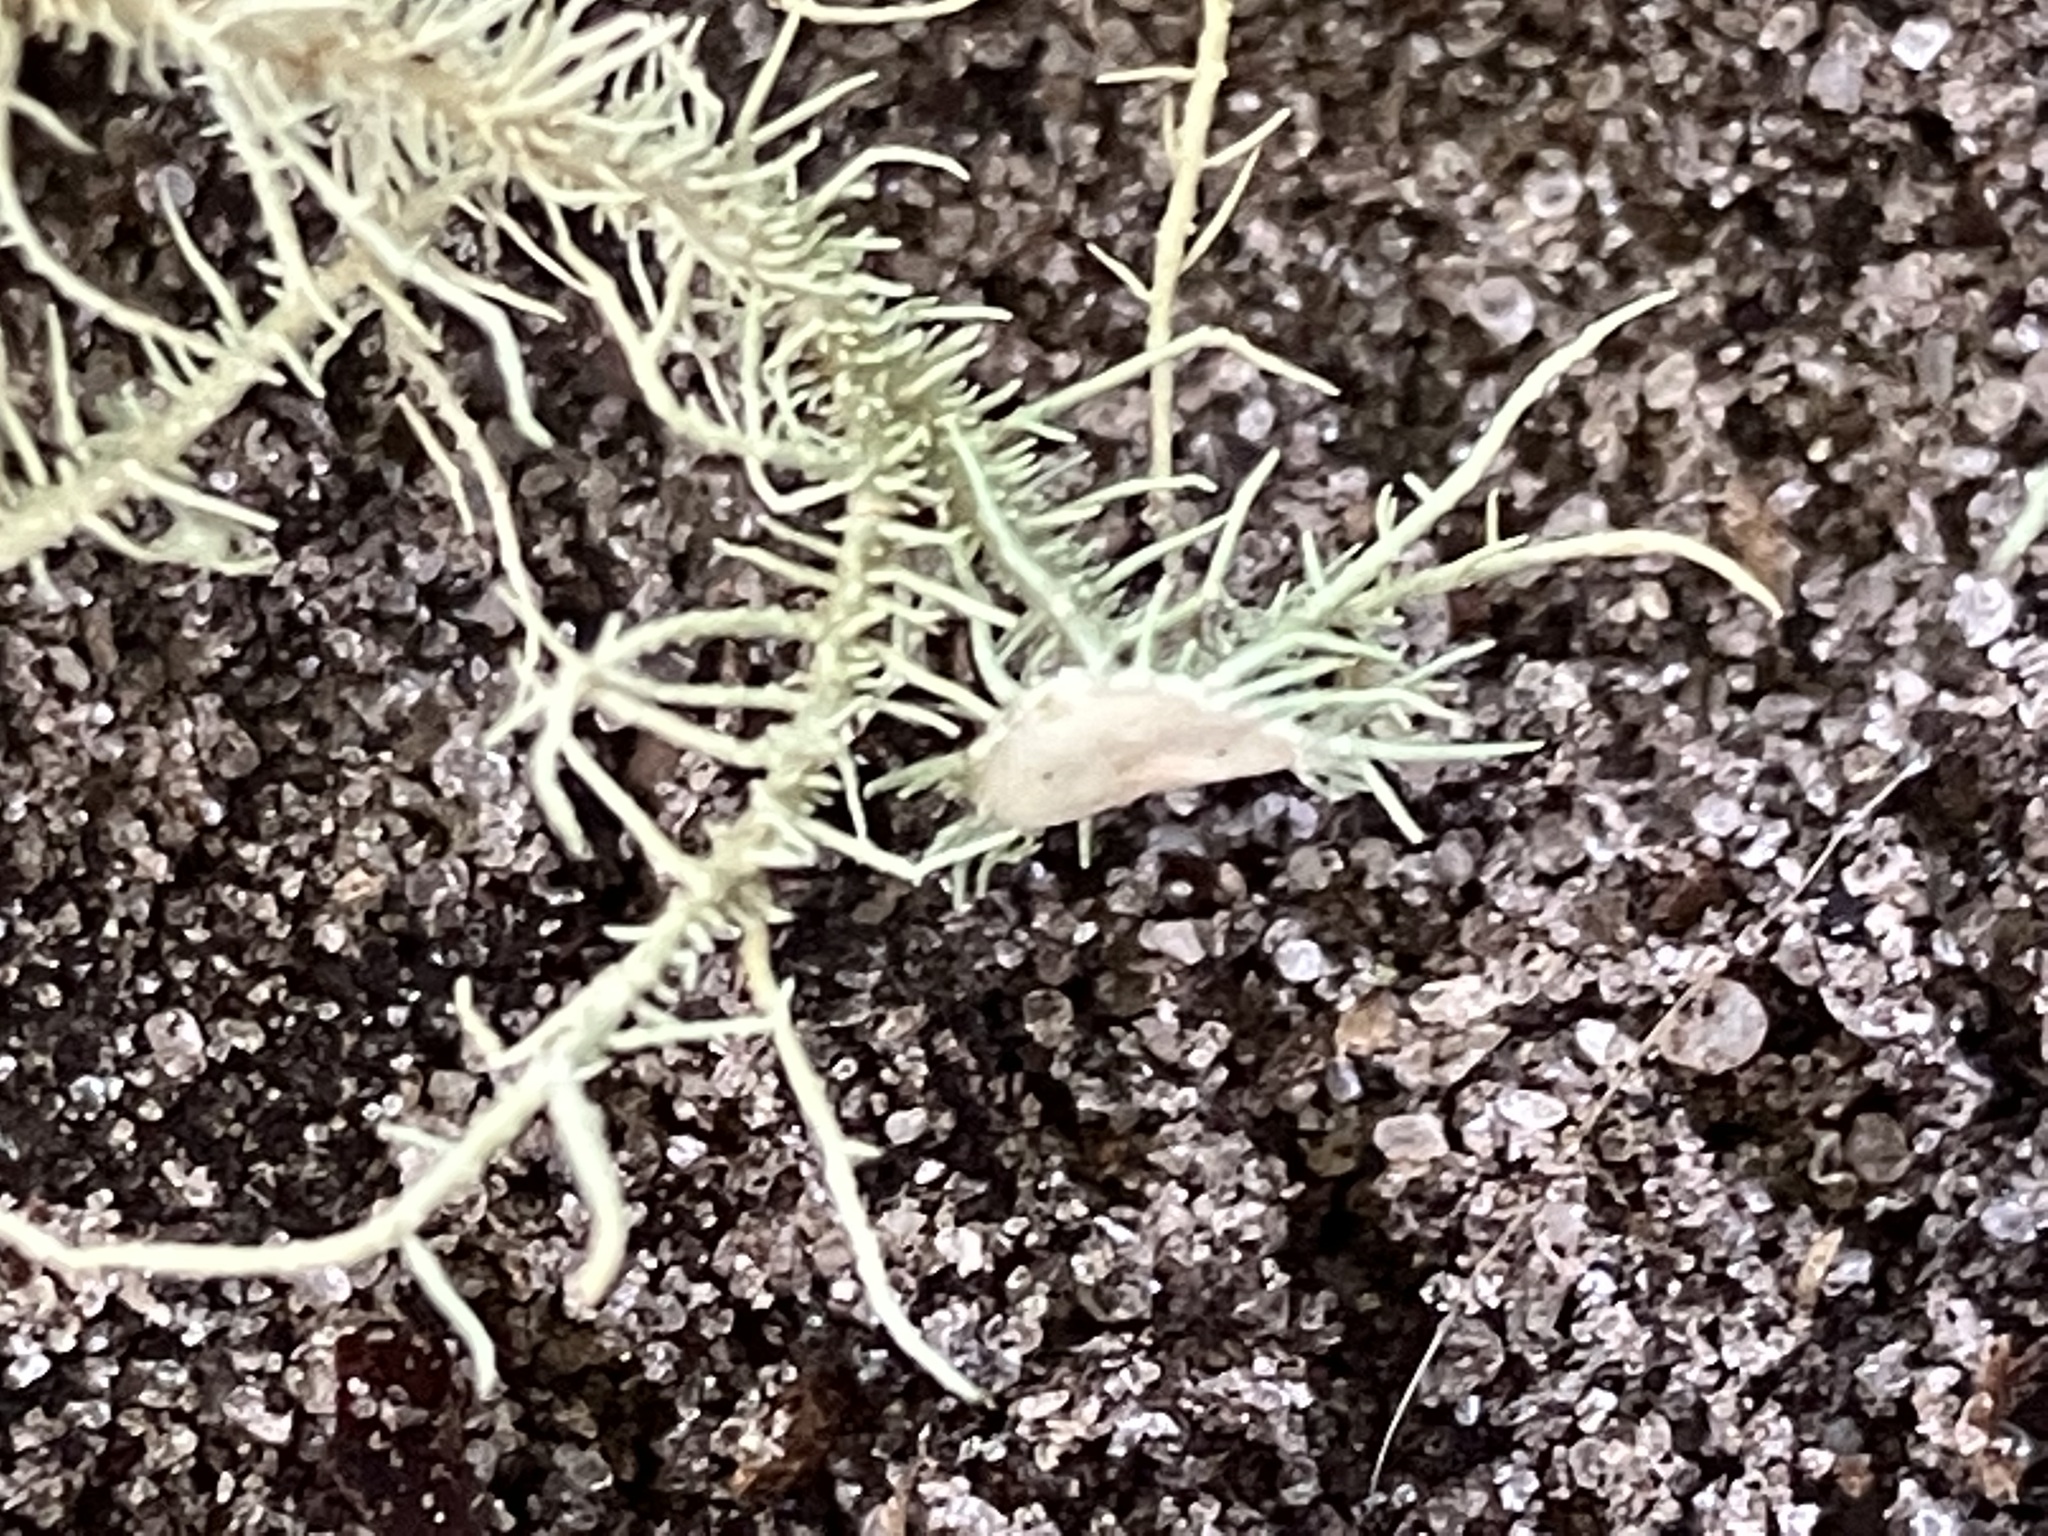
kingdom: Fungi
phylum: Ascomycota
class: Lecanoromycetes
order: Lecanorales
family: Parmeliaceae
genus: Usnea
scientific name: Usnea strigosa
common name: Bushy beard lichen
